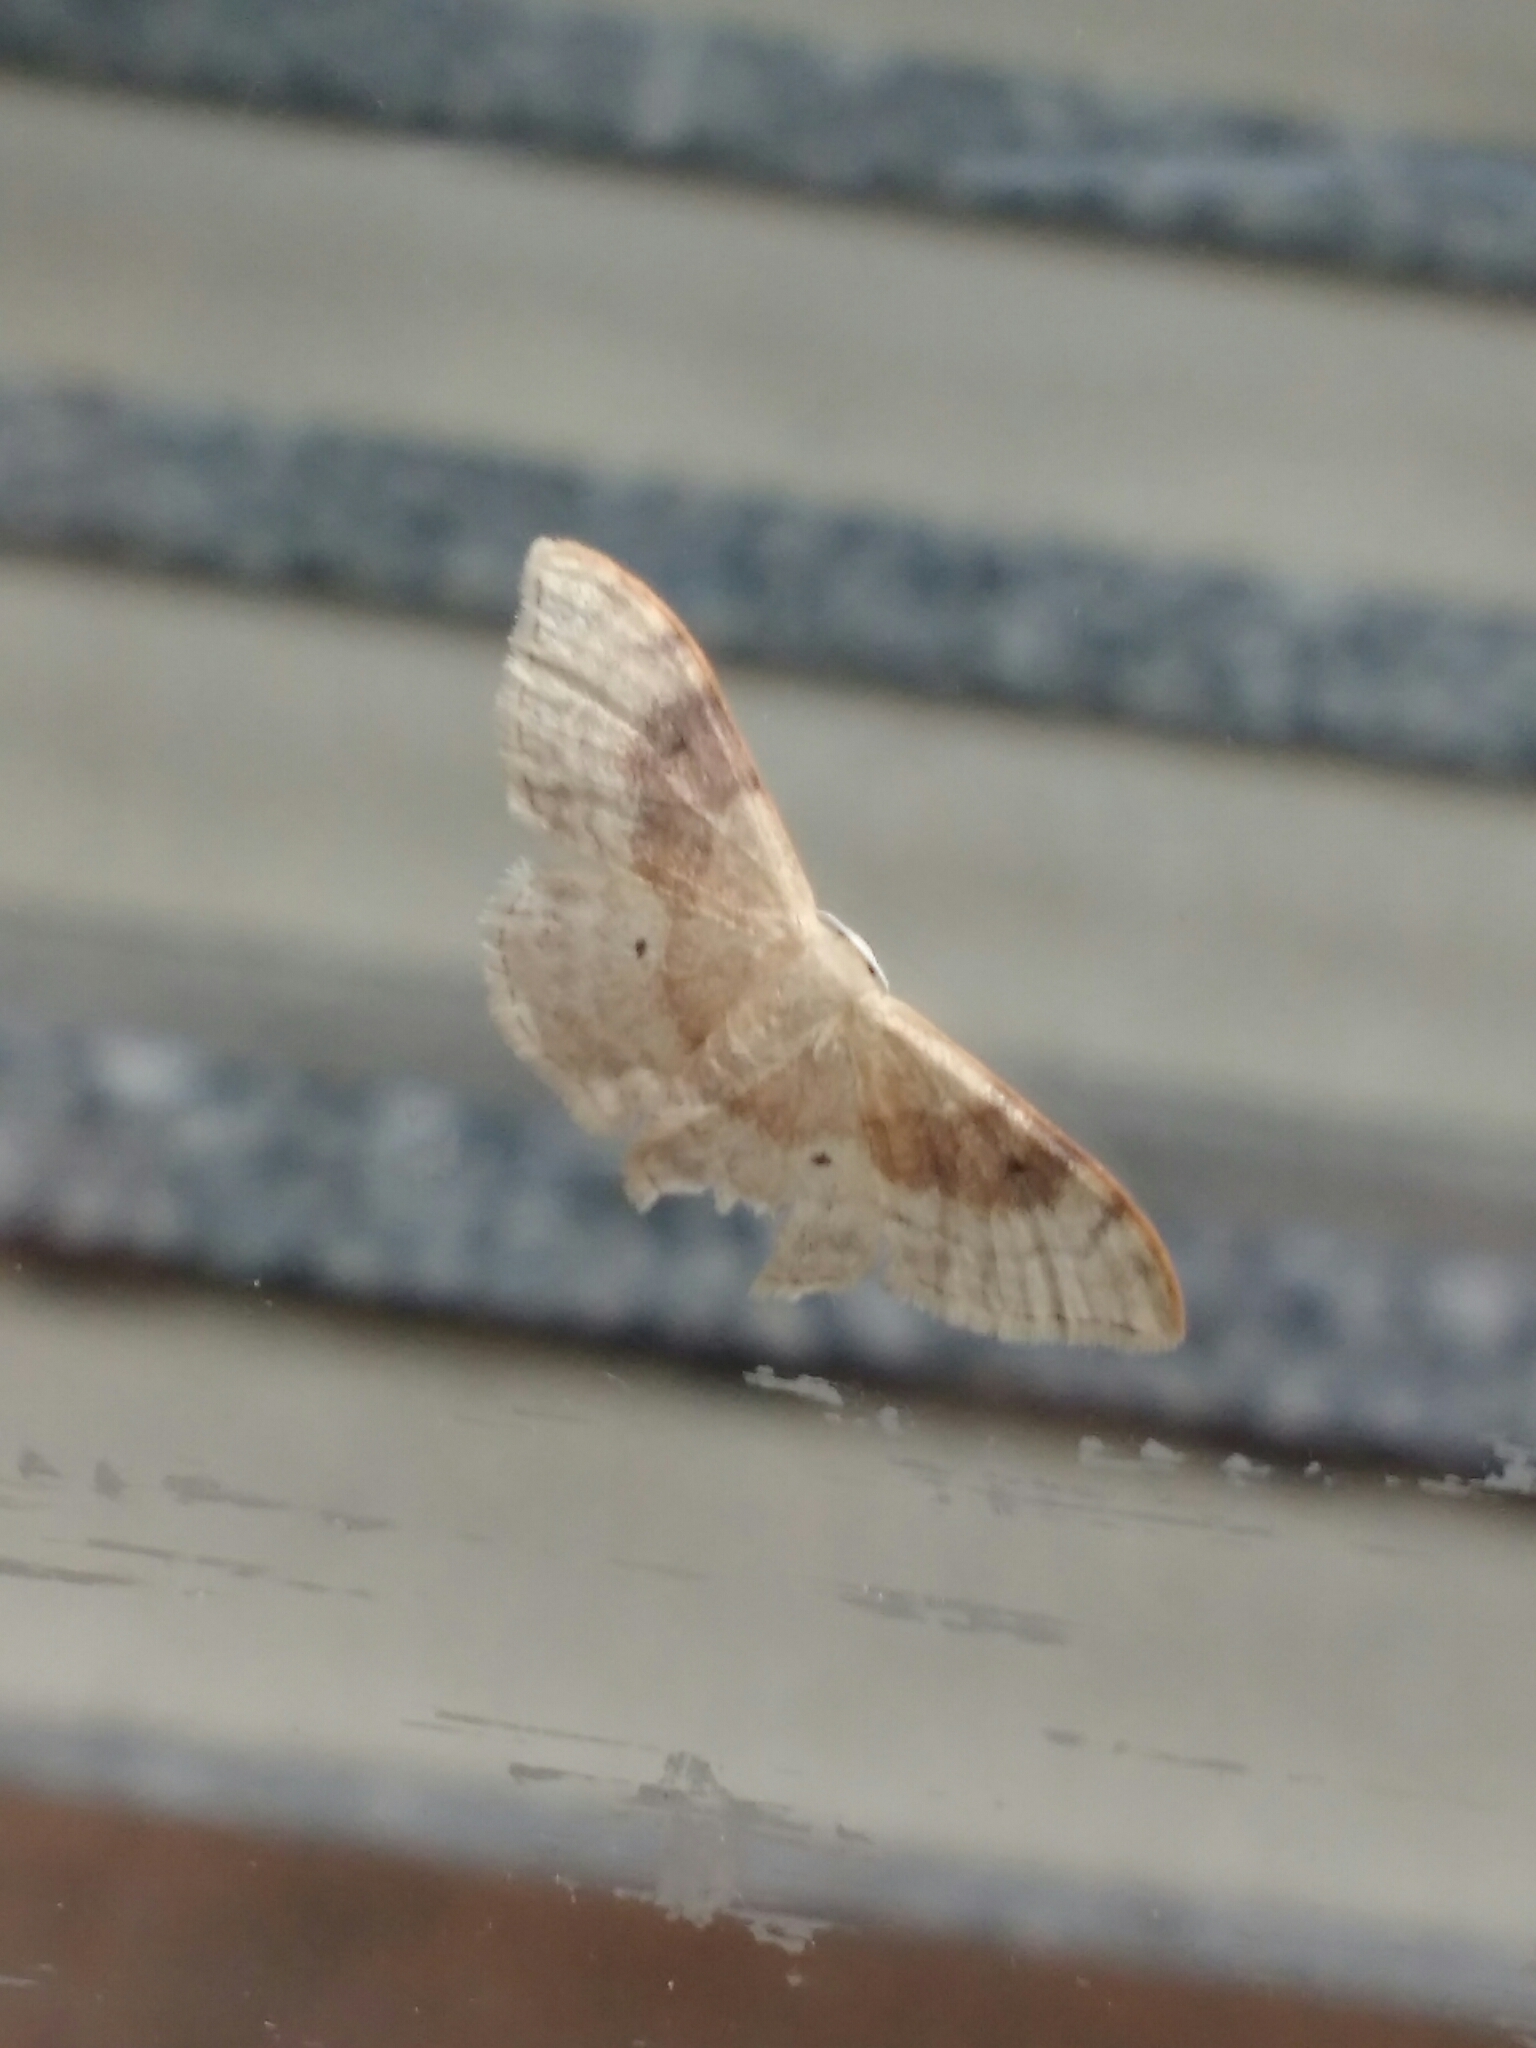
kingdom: Animalia
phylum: Arthropoda
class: Insecta
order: Lepidoptera
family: Geometridae
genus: Idaea
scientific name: Idaea degeneraria
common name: Portland ribbon wave
